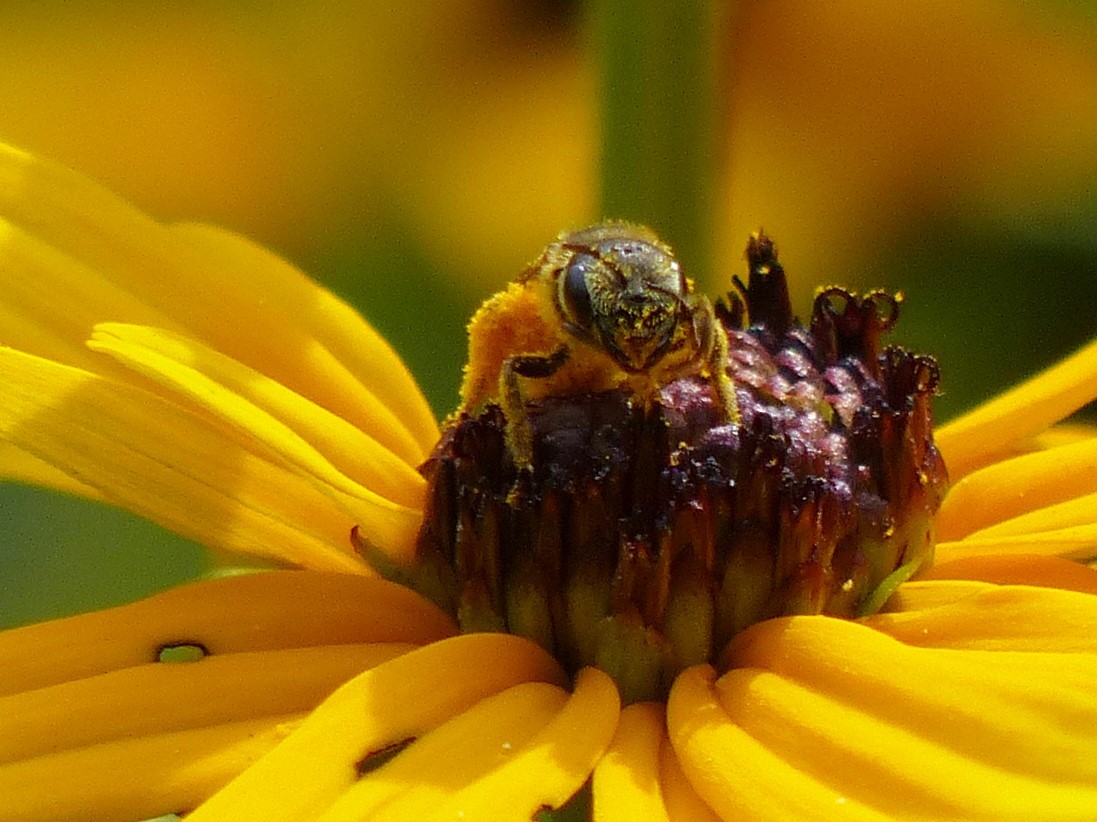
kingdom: Animalia
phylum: Arthropoda
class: Insecta
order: Hymenoptera
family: Halictidae
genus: Halictus
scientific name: Halictus ligatus
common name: Ligated furrow bee
